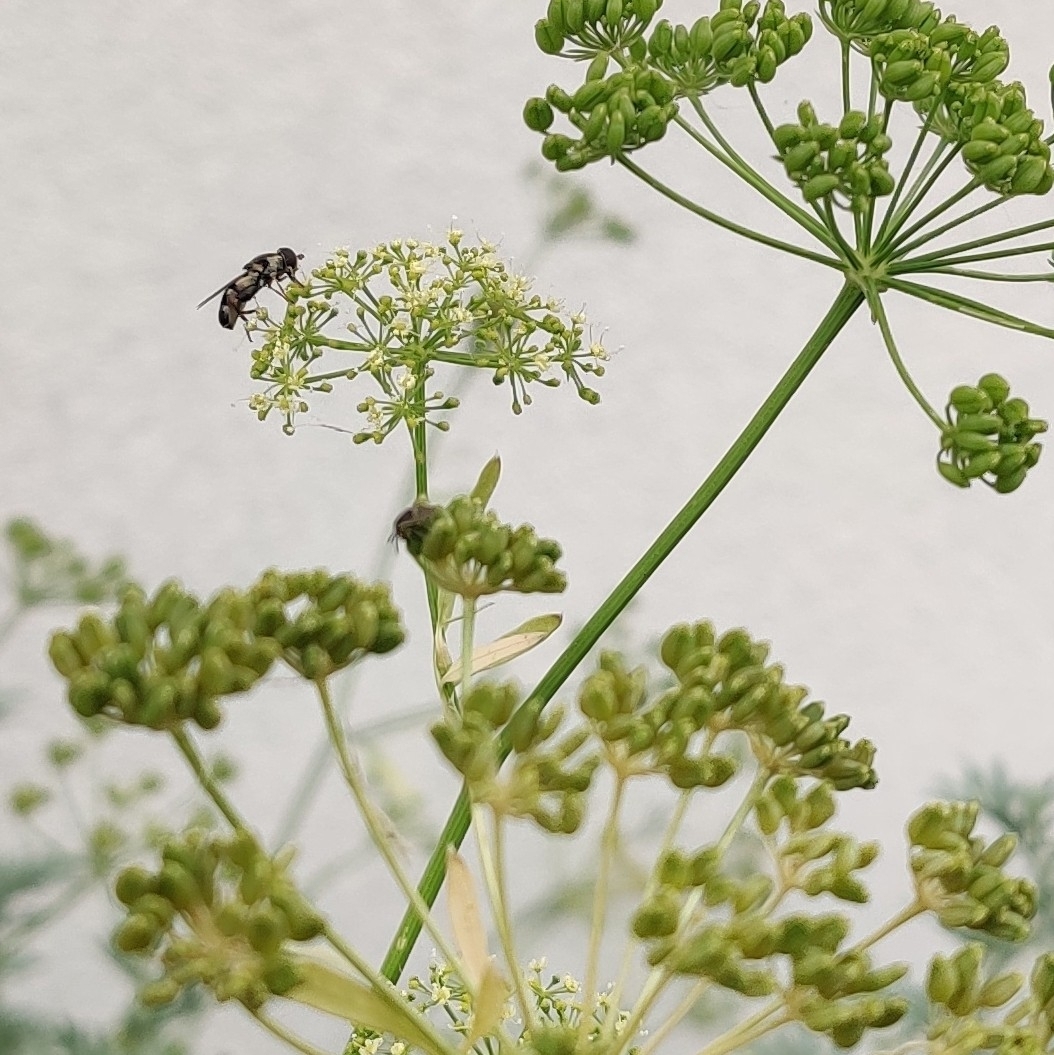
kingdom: Animalia
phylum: Arthropoda
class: Insecta
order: Diptera
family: Syrphidae
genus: Syritta
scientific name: Syritta pipiens
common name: Hover fly
